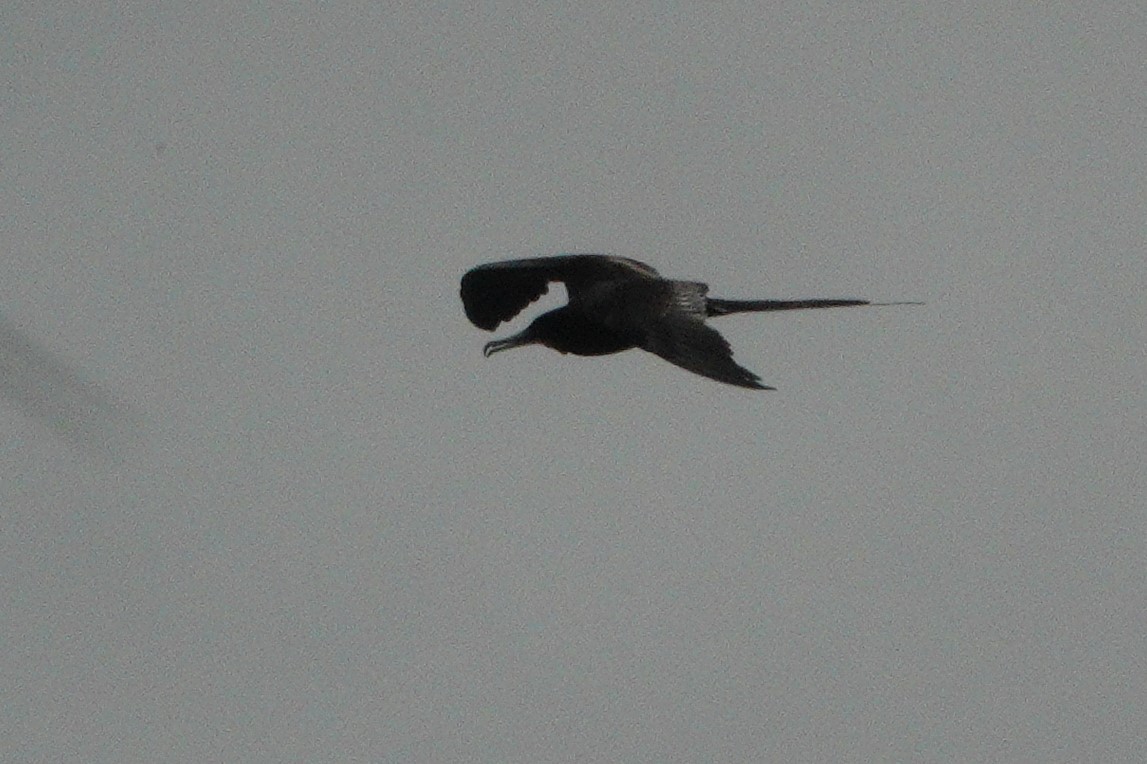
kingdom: Animalia
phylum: Chordata
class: Aves
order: Suliformes
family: Fregatidae
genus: Fregata
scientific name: Fregata magnificens
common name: Magnificent frigatebird
